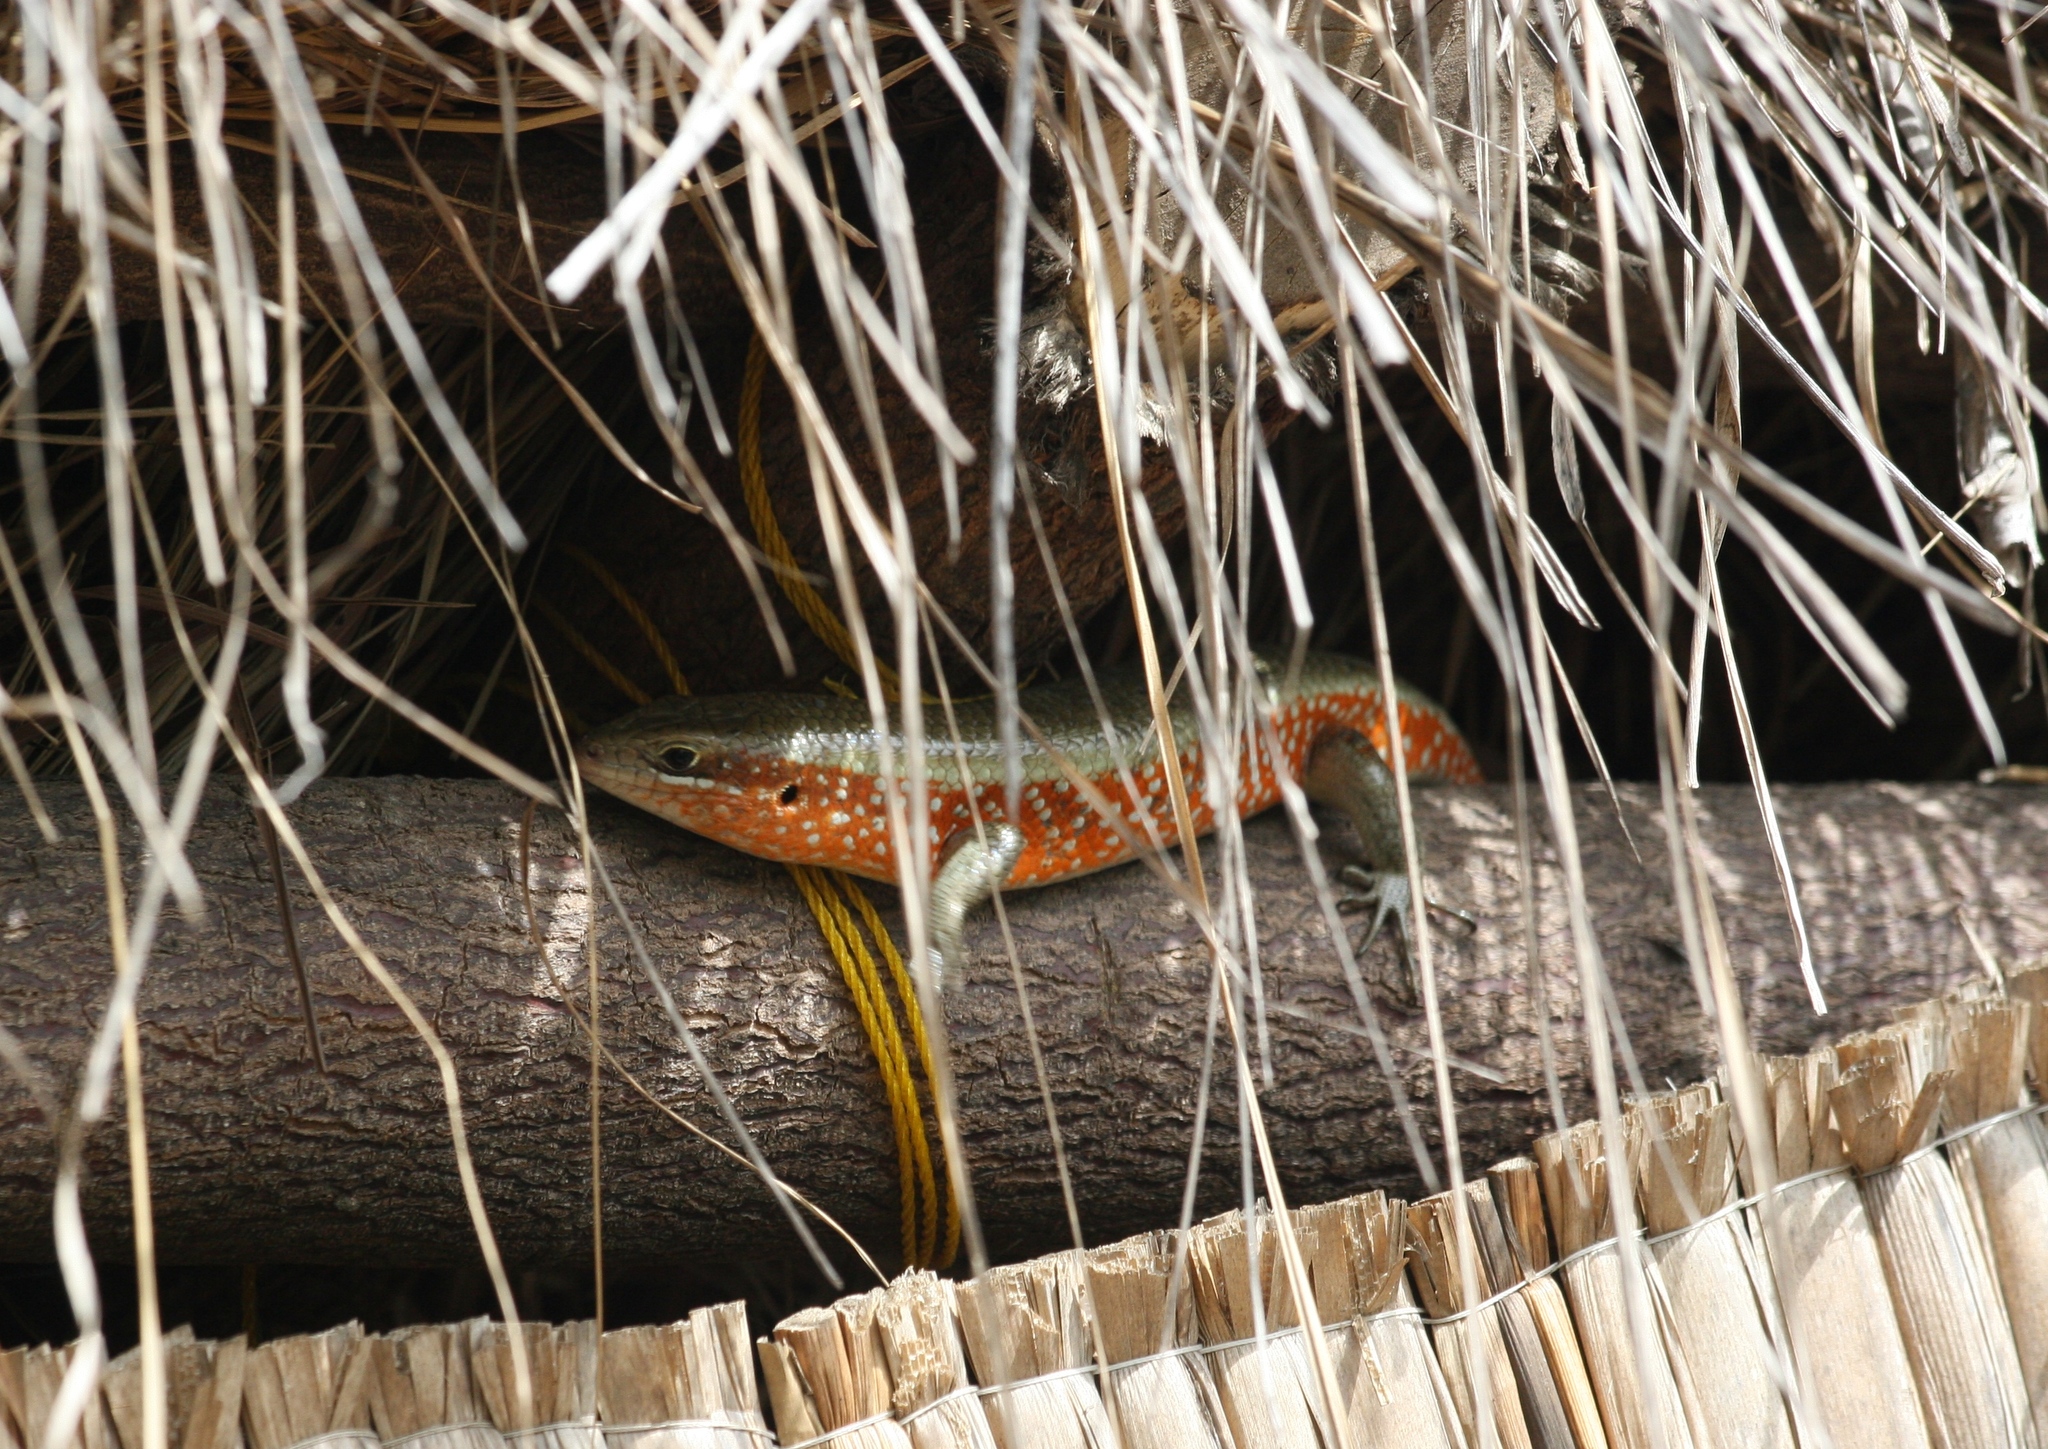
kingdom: Animalia
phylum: Chordata
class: Squamata
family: Scincidae
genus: Trachylepis
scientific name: Trachylepis perrotetii
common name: Teita mabuya
